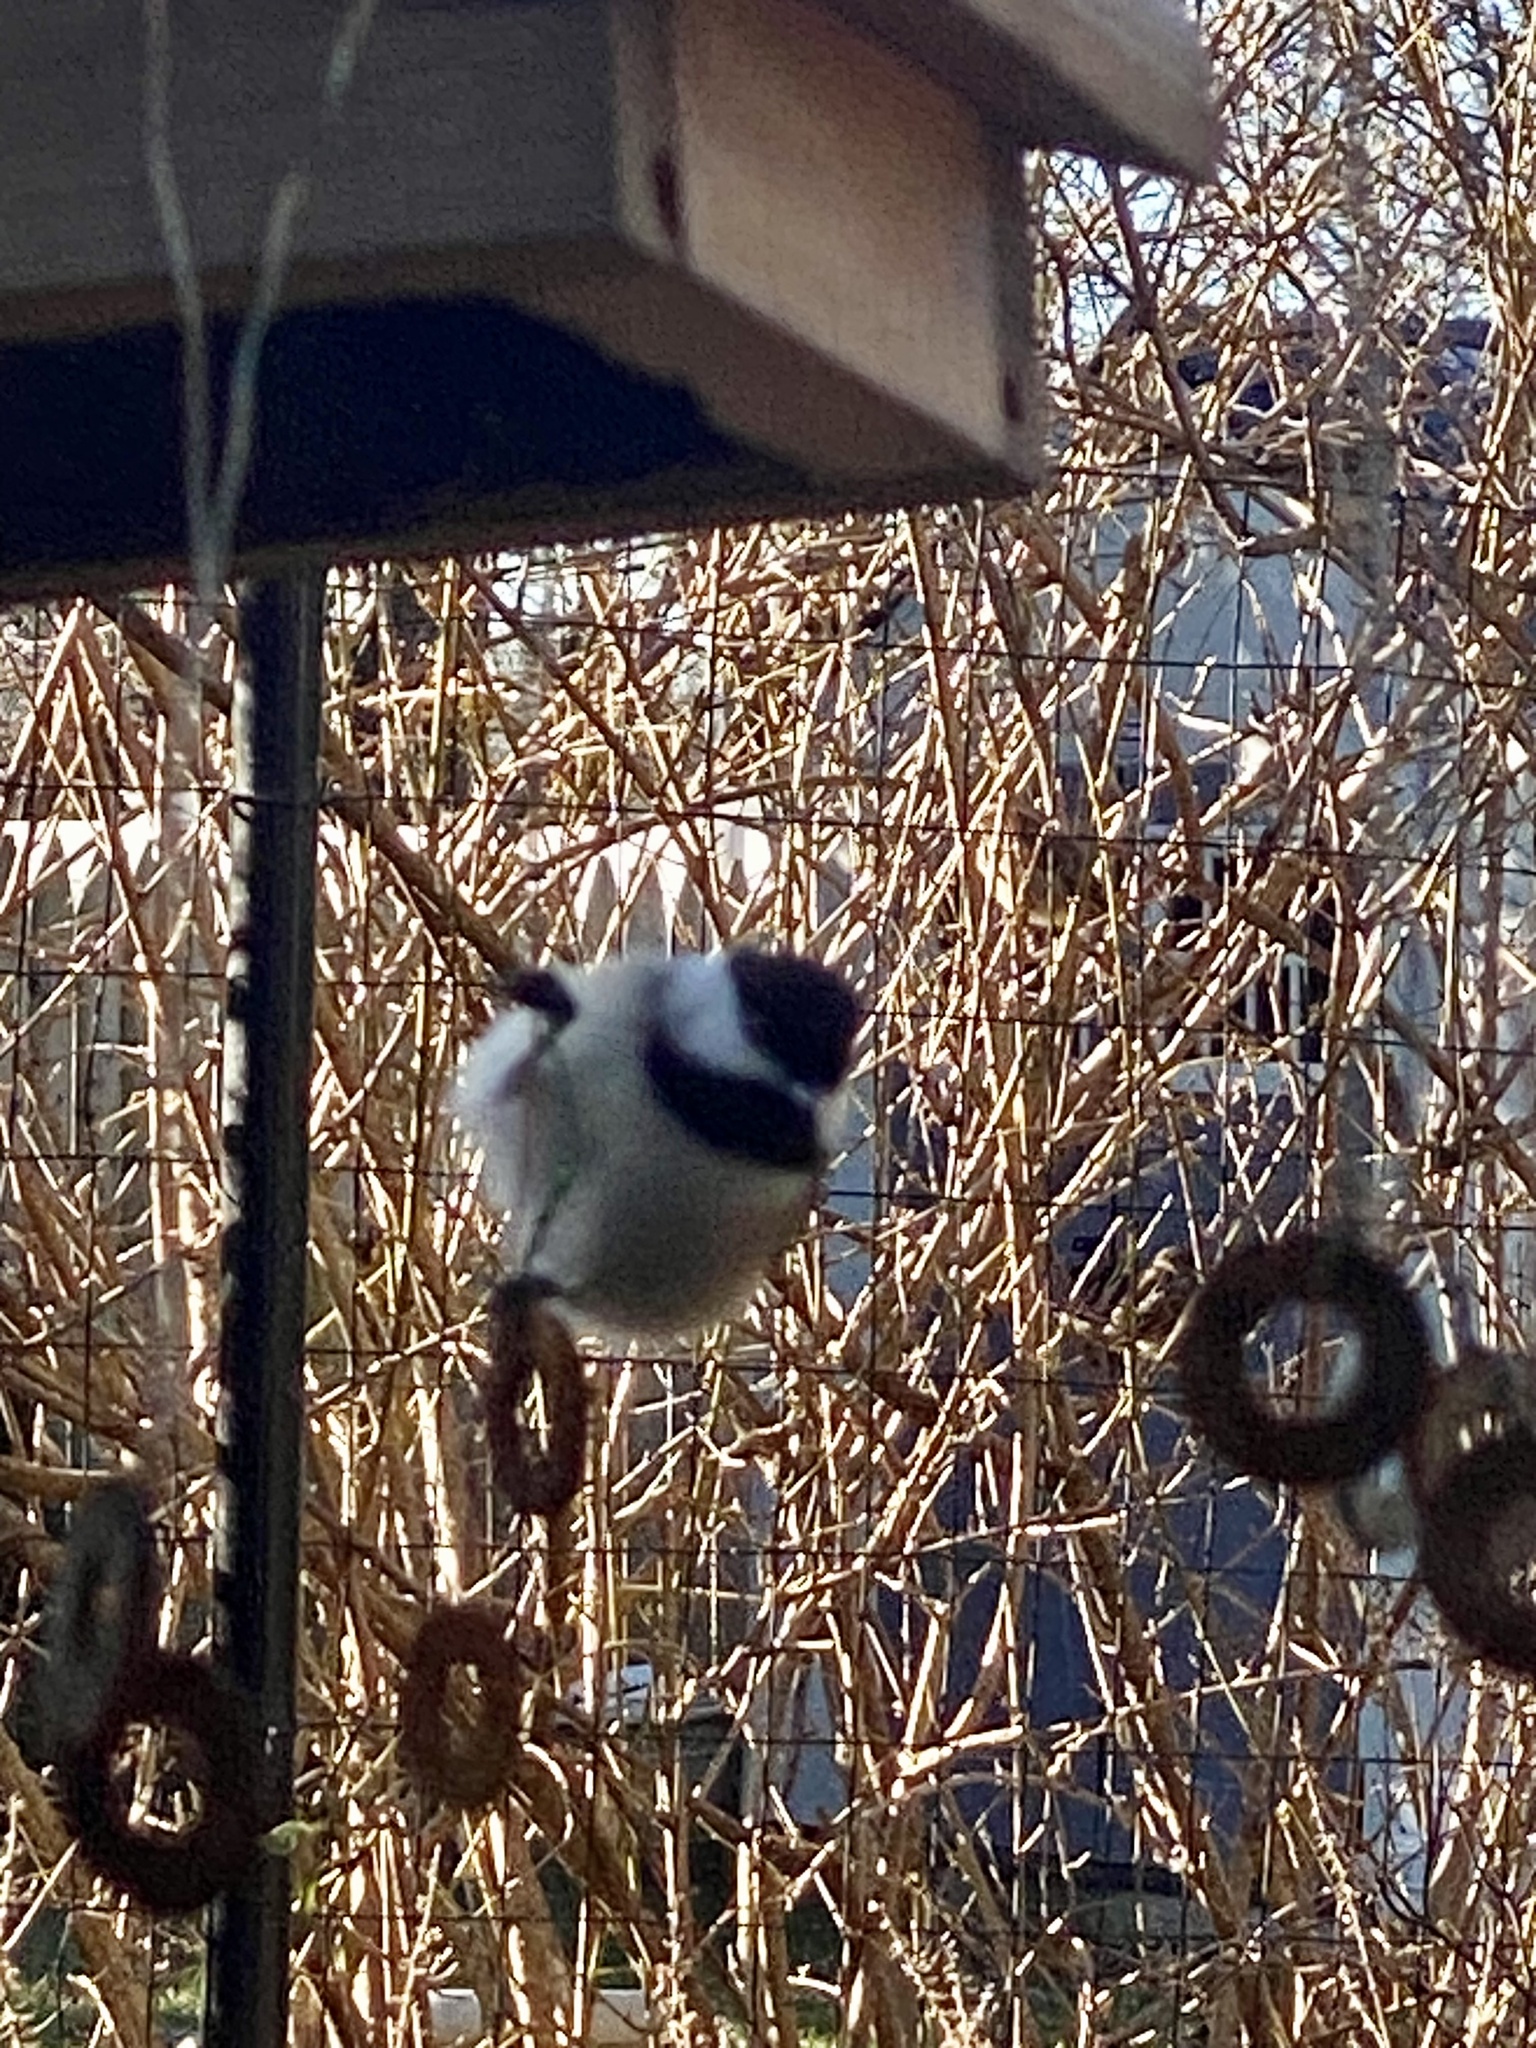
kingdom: Animalia
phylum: Chordata
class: Aves
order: Passeriformes
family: Paridae
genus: Poecile
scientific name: Poecile atricapillus
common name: Black-capped chickadee
